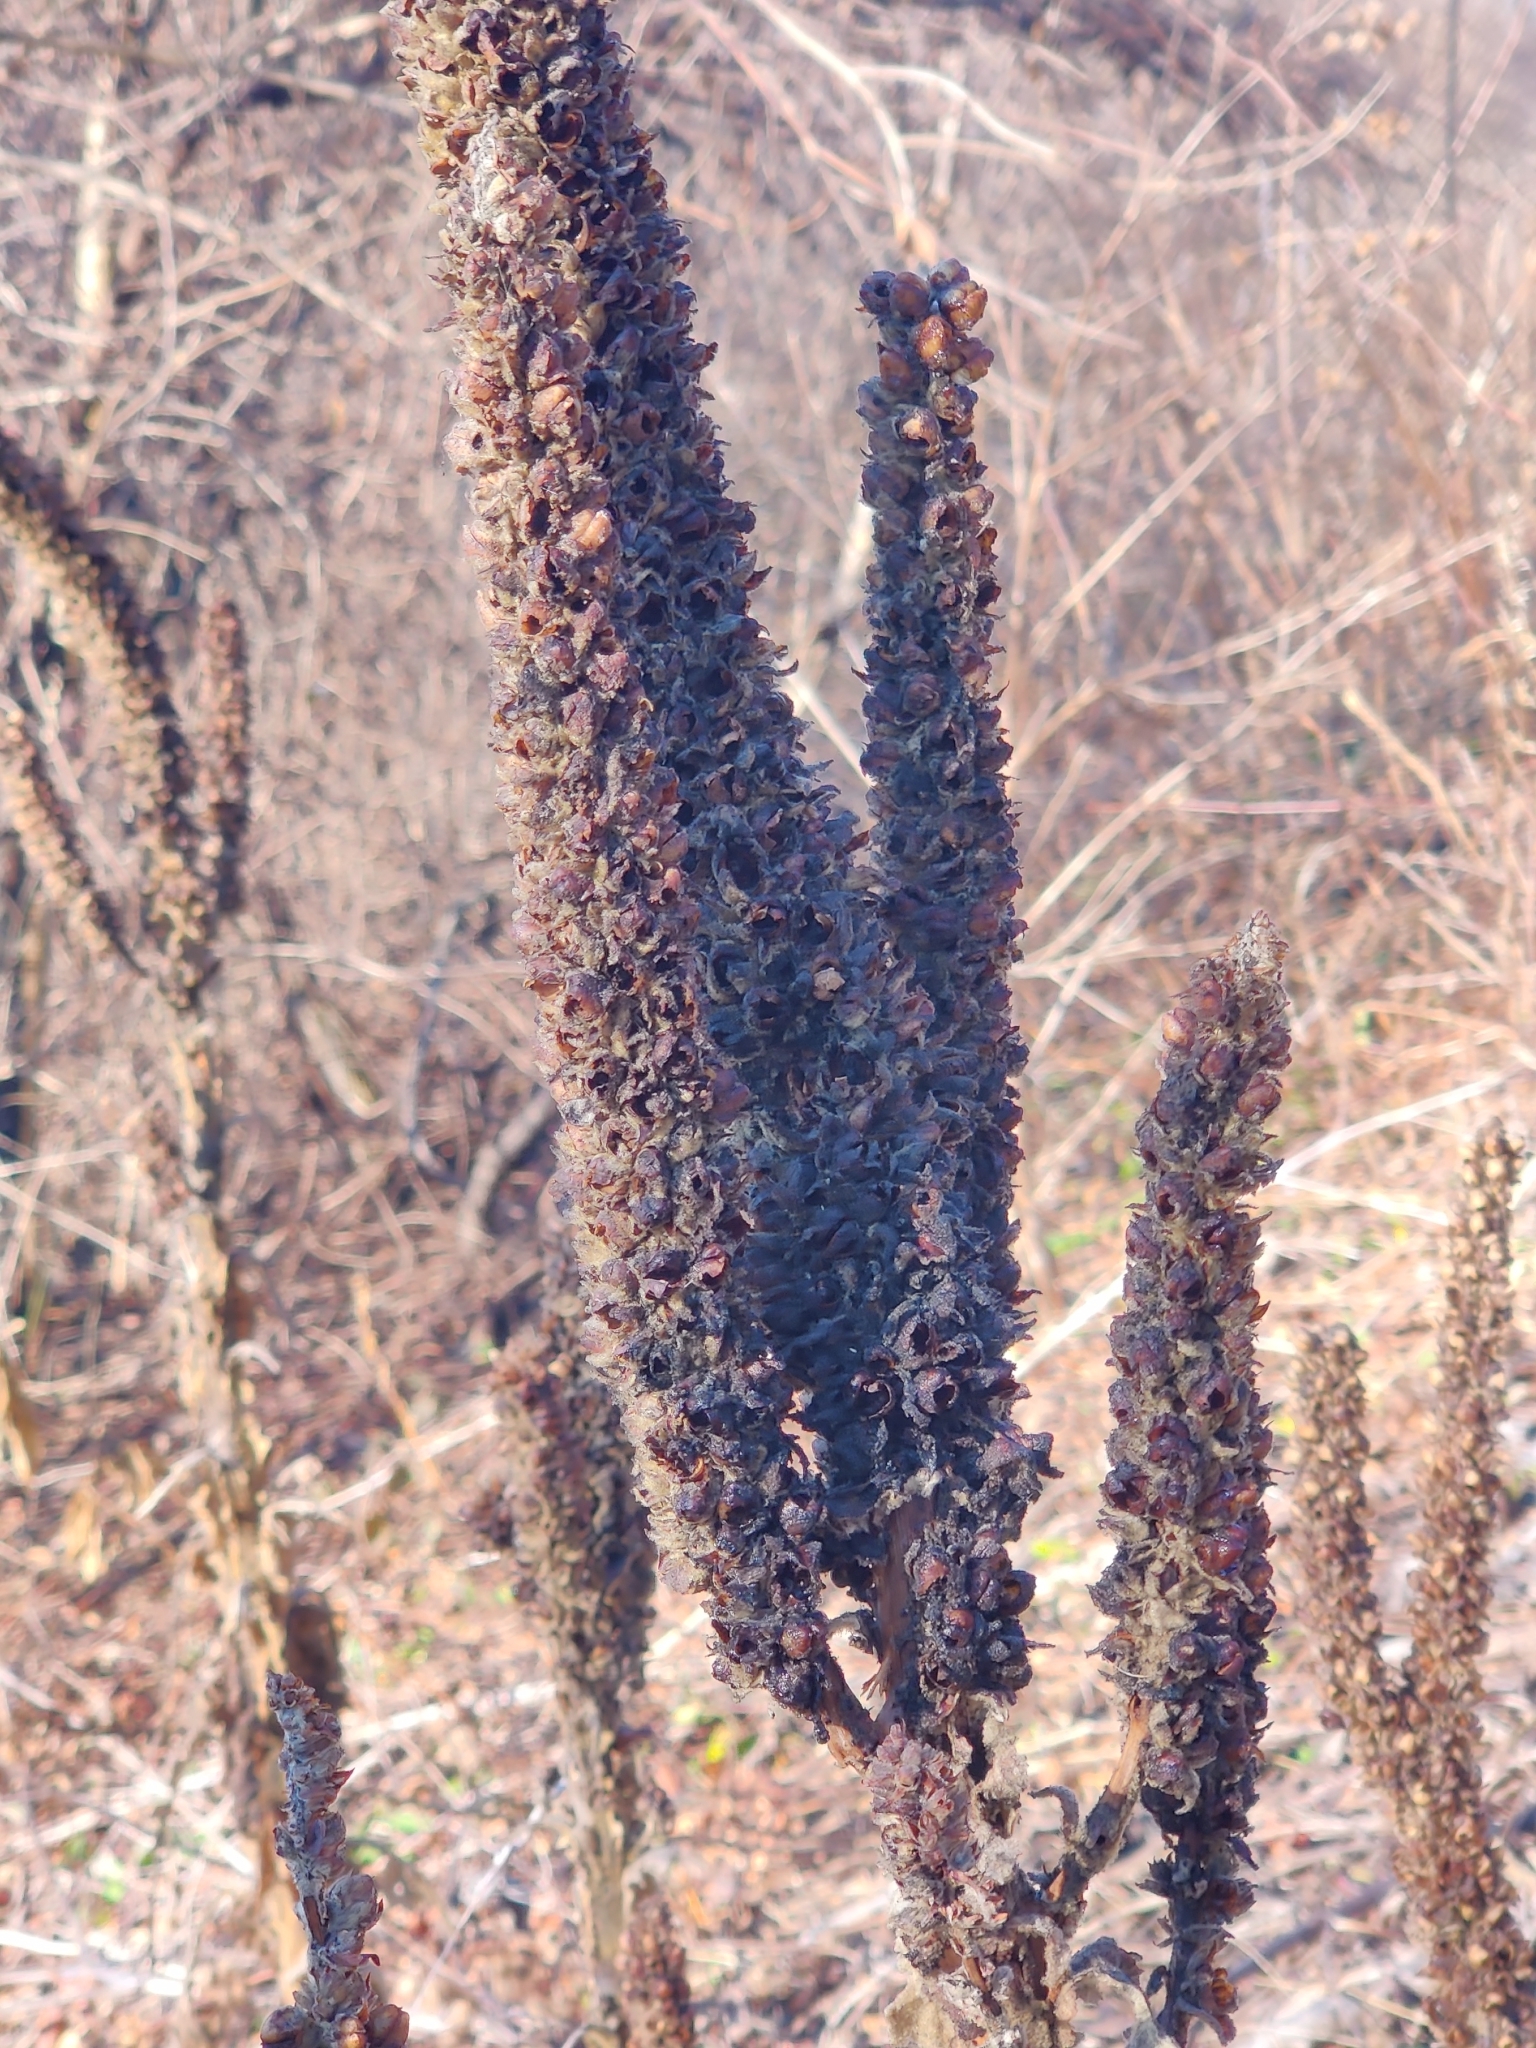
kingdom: Plantae
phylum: Tracheophyta
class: Magnoliopsida
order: Lamiales
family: Scrophulariaceae
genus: Verbascum
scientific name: Verbascum thapsus
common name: Common mullein
